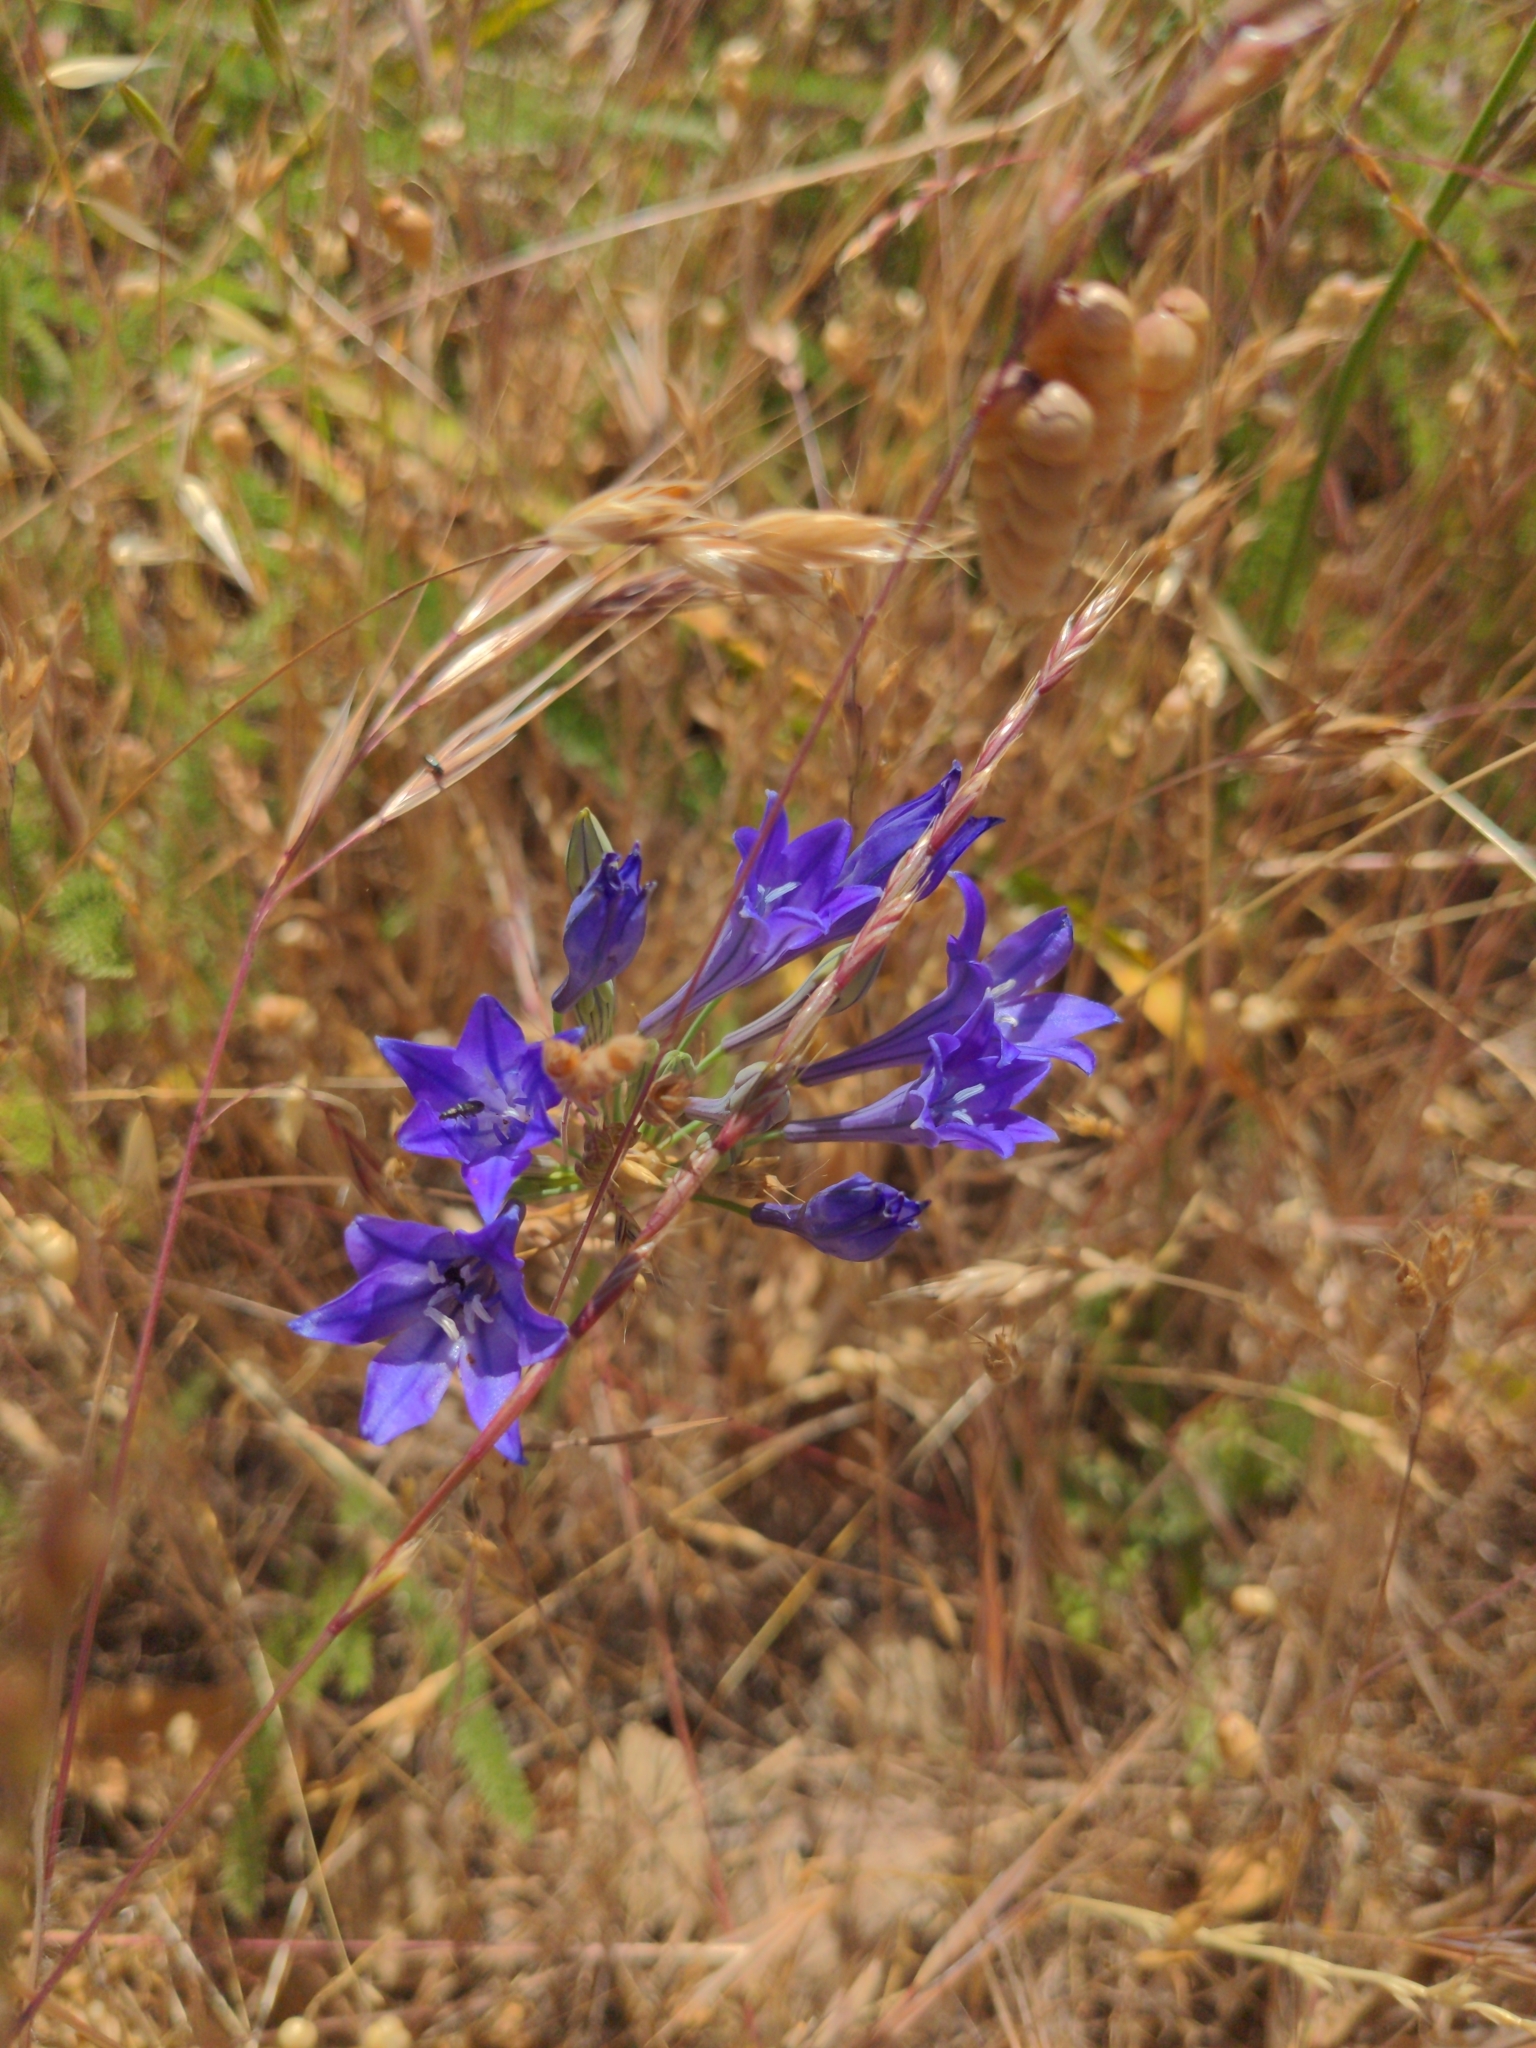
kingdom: Plantae
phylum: Tracheophyta
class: Liliopsida
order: Asparagales
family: Asparagaceae
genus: Triteleia
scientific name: Triteleia laxa
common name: Triplet-lily
